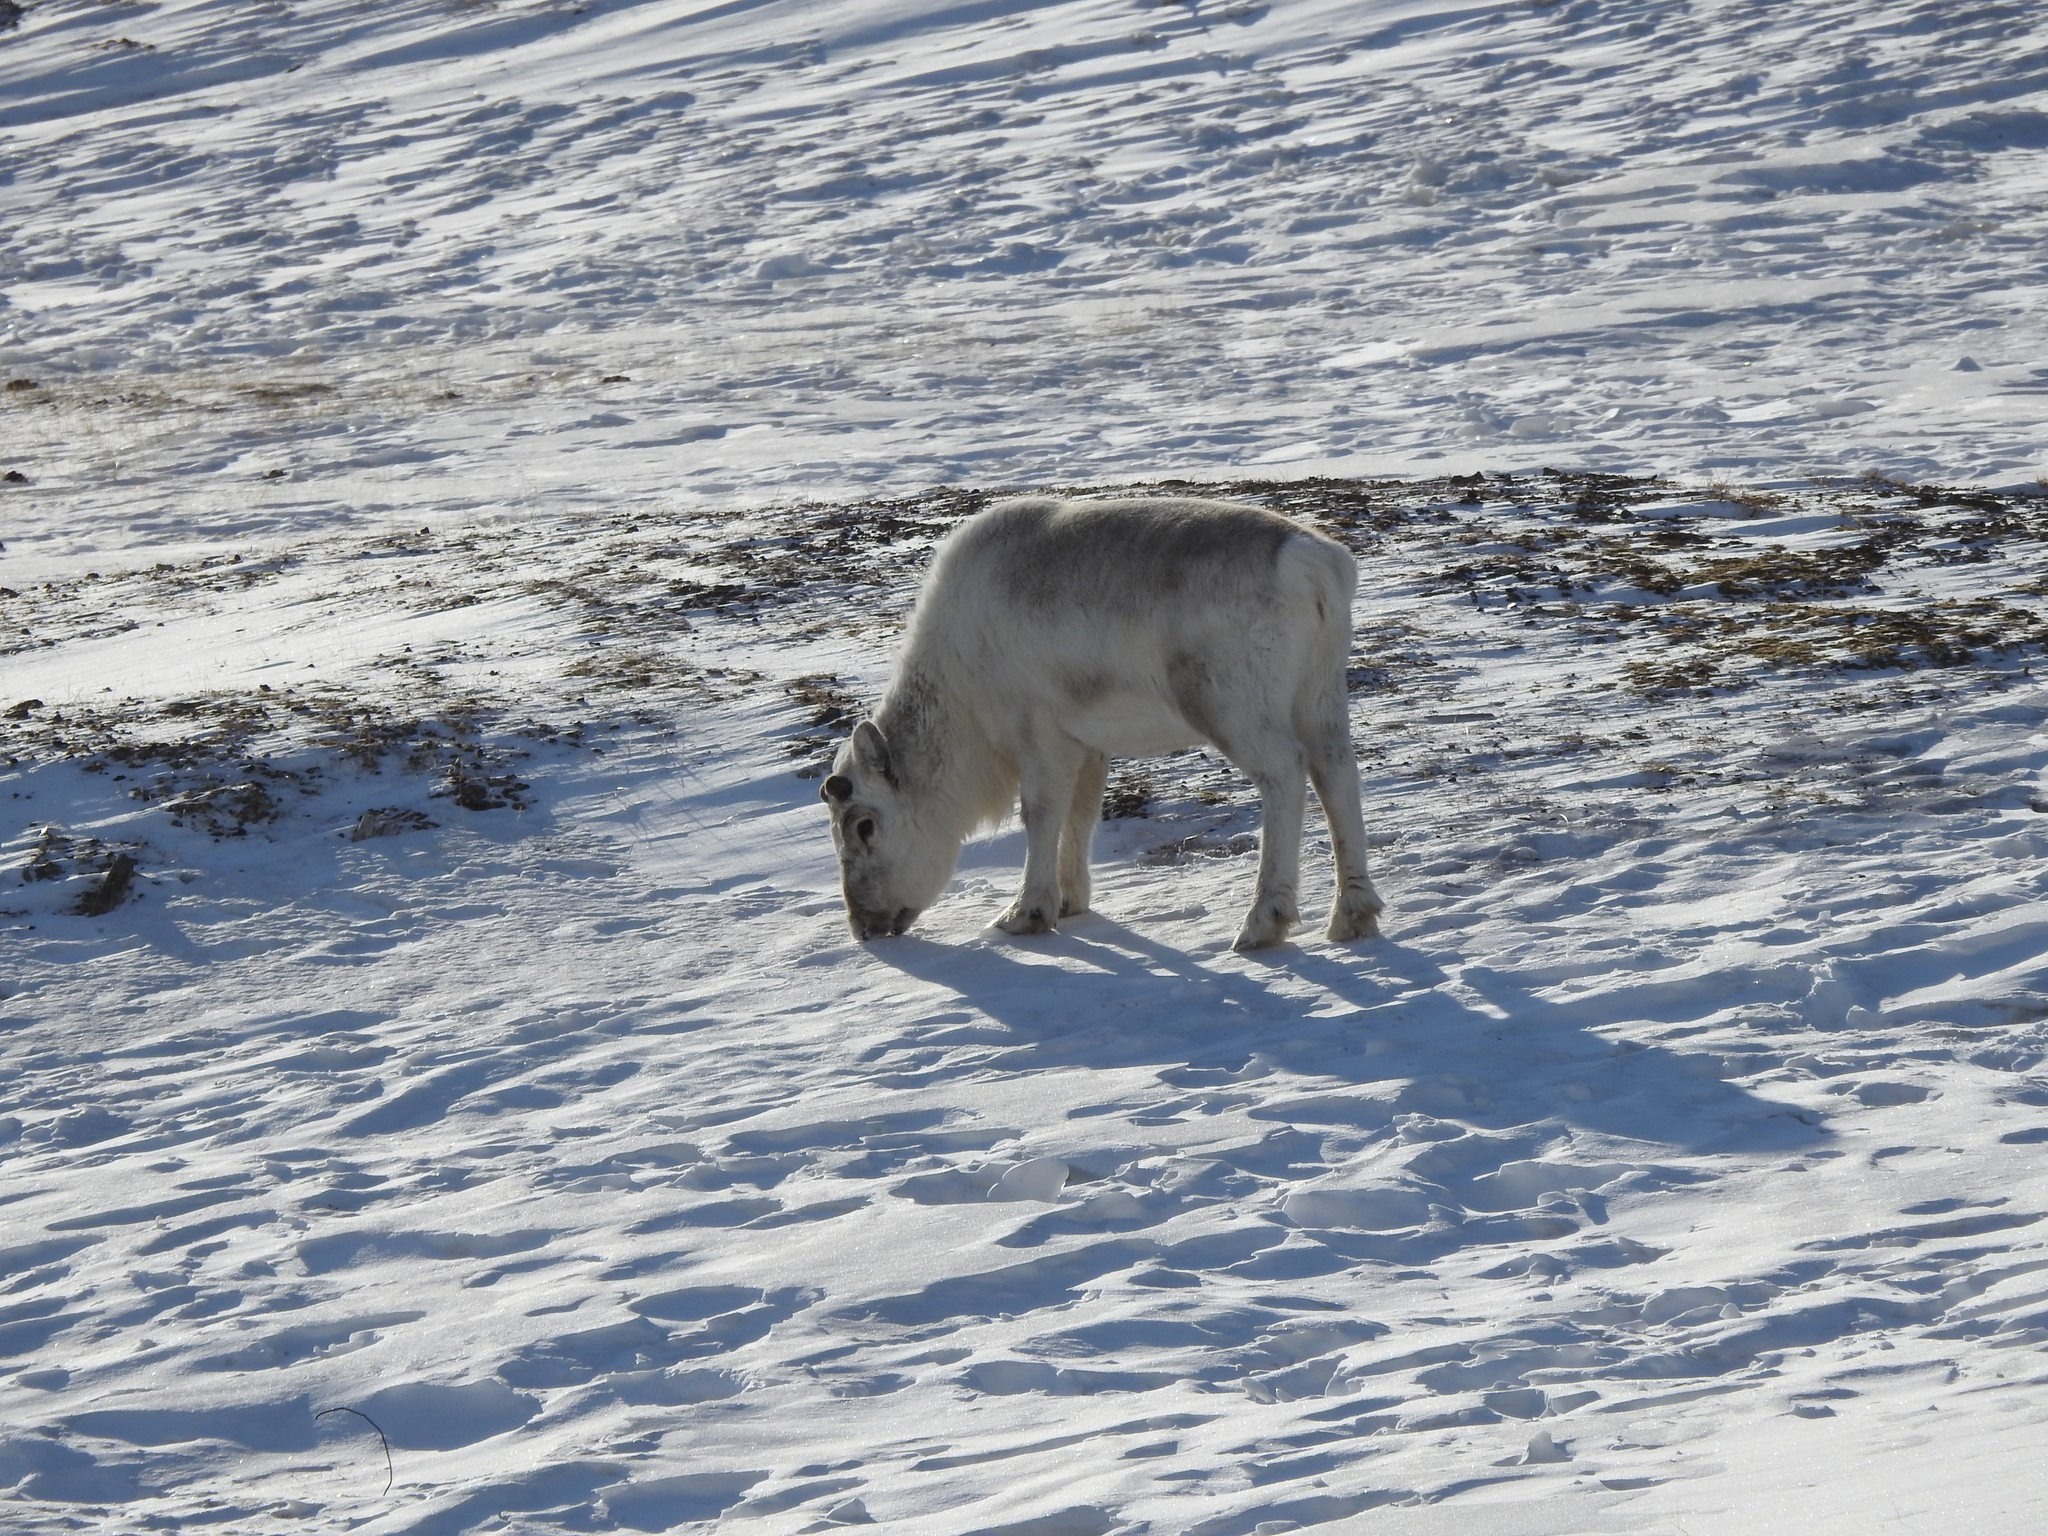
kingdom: Animalia
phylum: Chordata
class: Mammalia
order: Artiodactyla
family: Cervidae
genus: Rangifer
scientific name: Rangifer tarandus
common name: Reindeer
